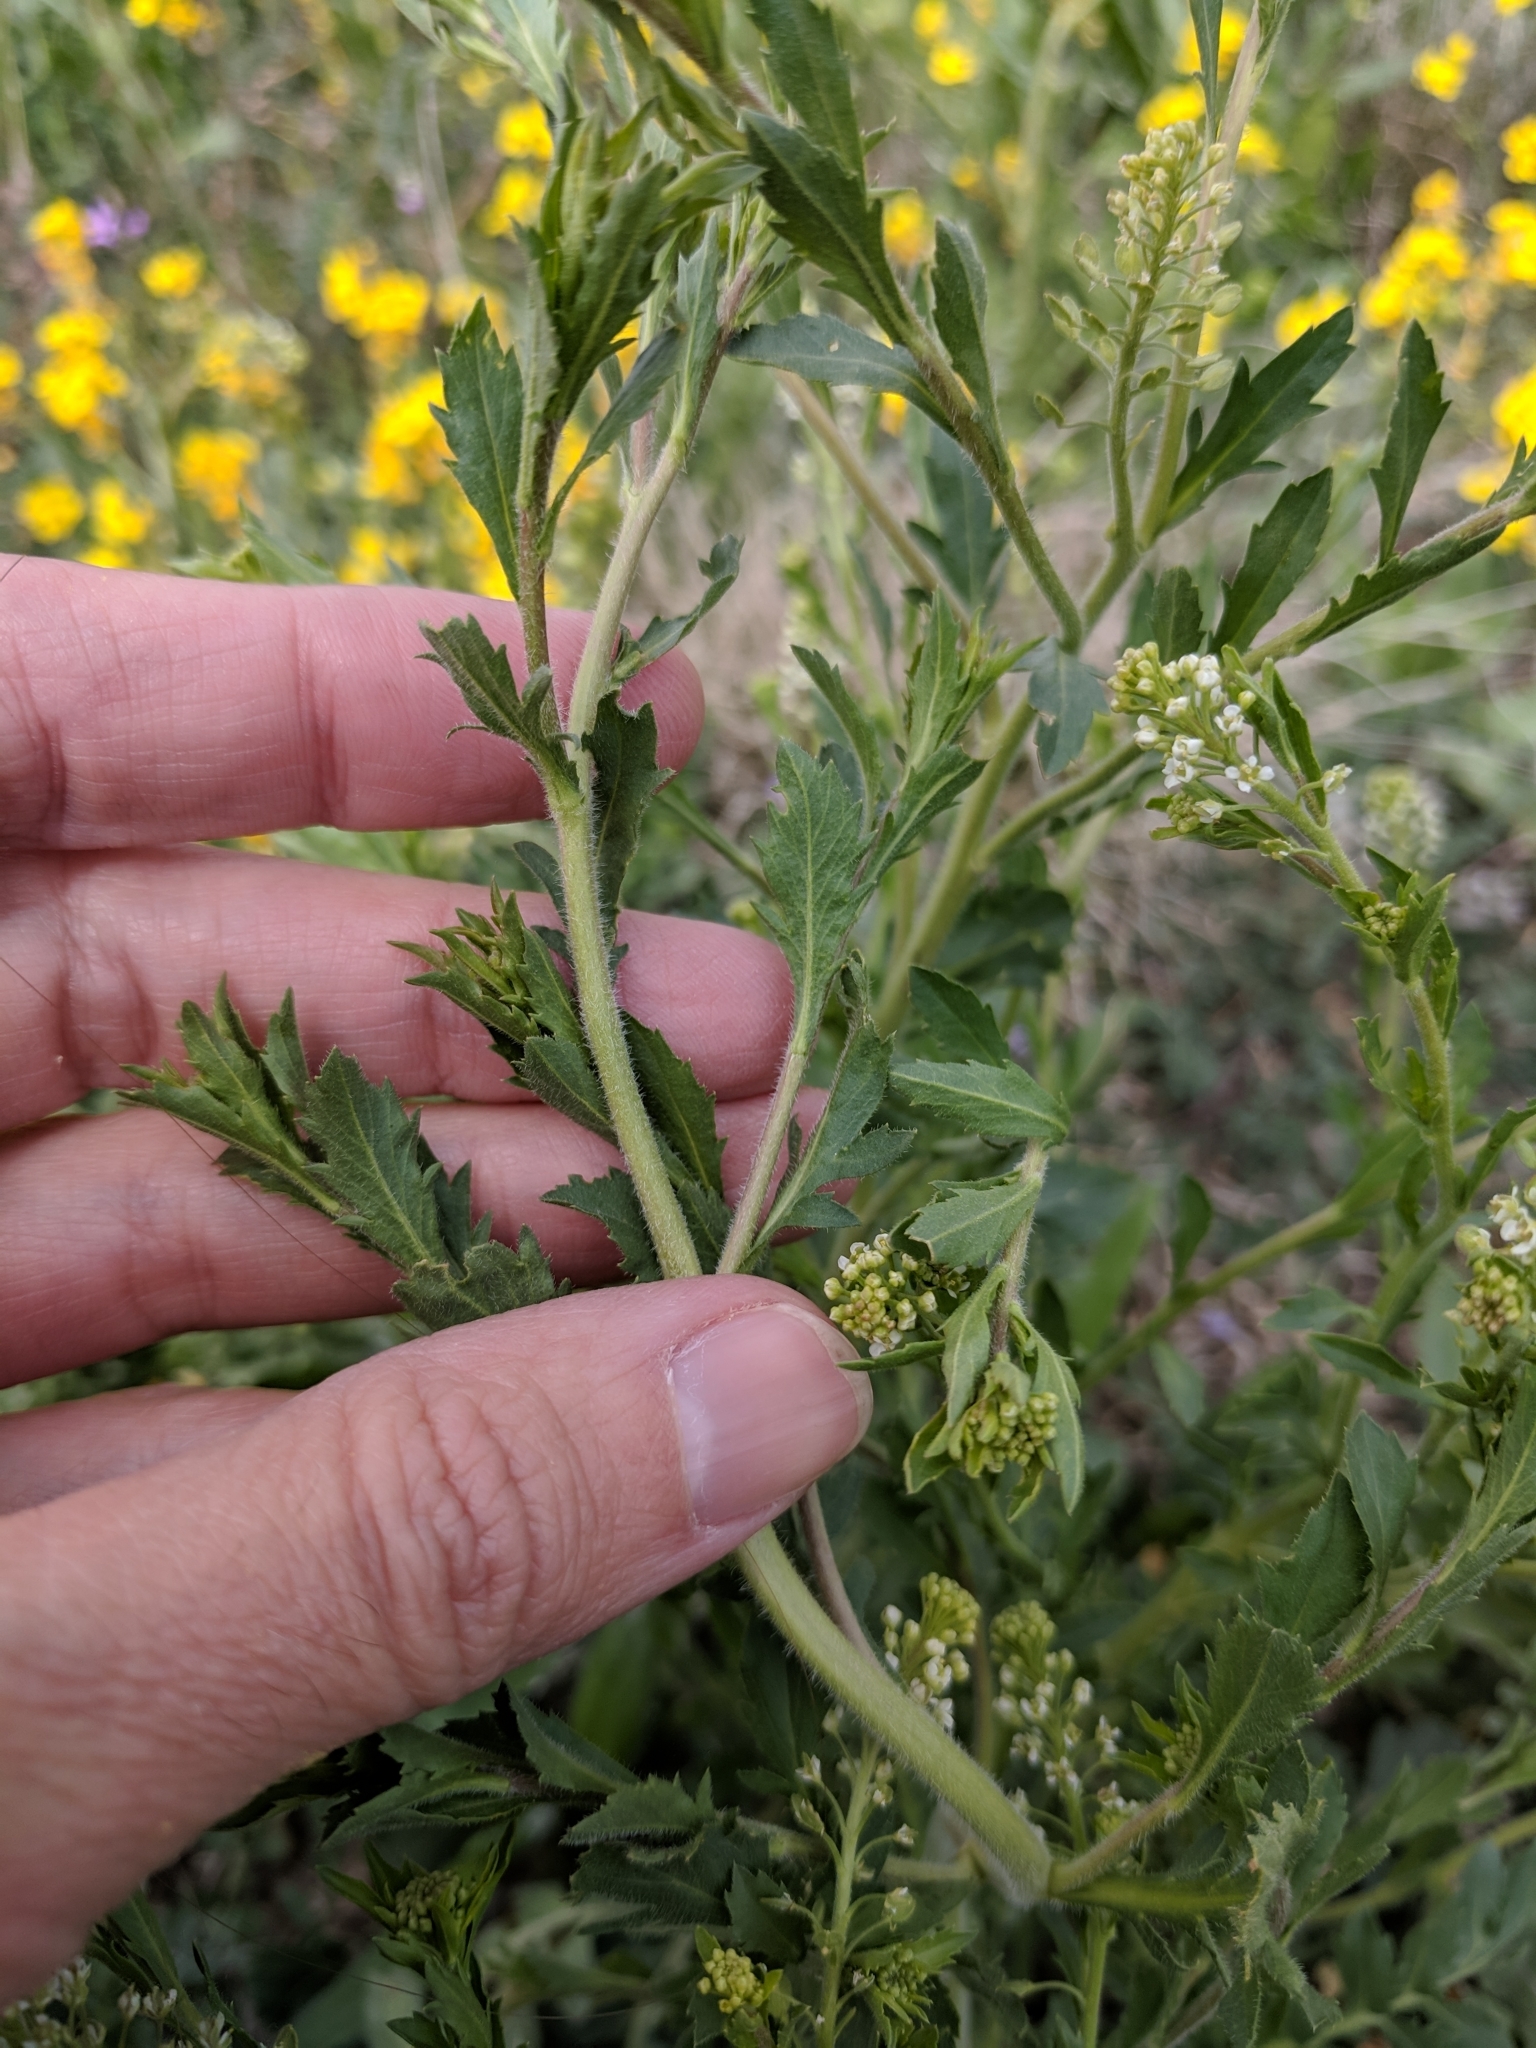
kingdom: Plantae
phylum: Tracheophyta
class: Magnoliopsida
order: Brassicales
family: Brassicaceae
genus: Lepidium
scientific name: Lepidium virginicum
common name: Least pepperwort
